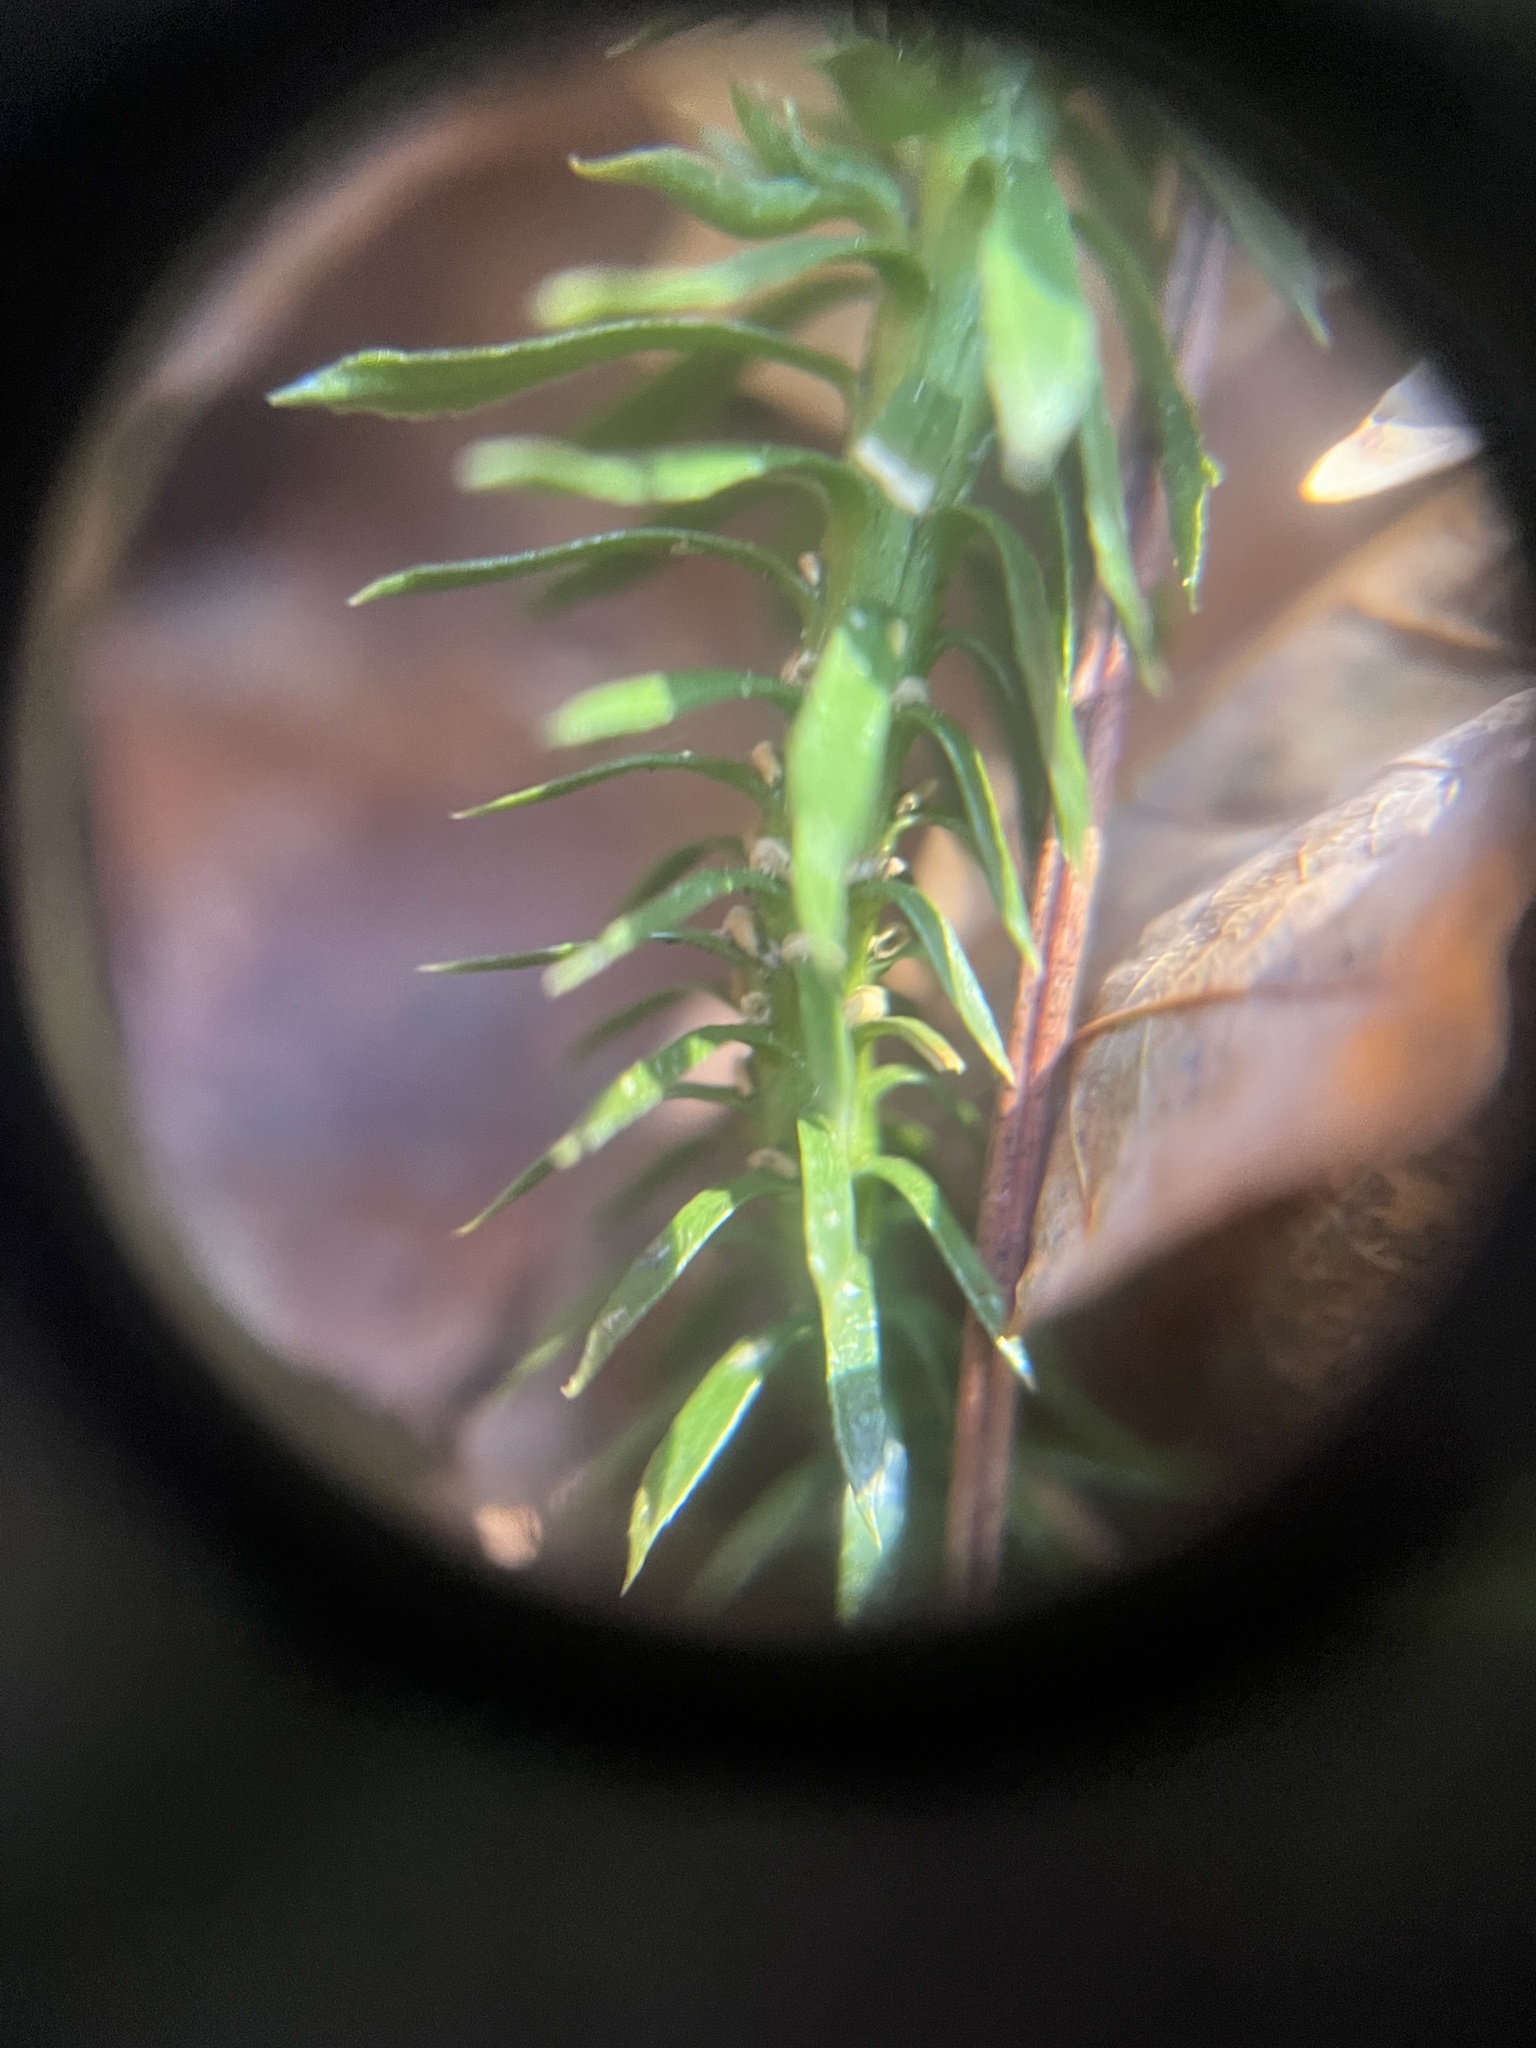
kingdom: Plantae
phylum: Tracheophyta
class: Lycopodiopsida
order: Lycopodiales
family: Lycopodiaceae
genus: Huperzia
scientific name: Huperzia lucidula
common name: Shining clubmoss
